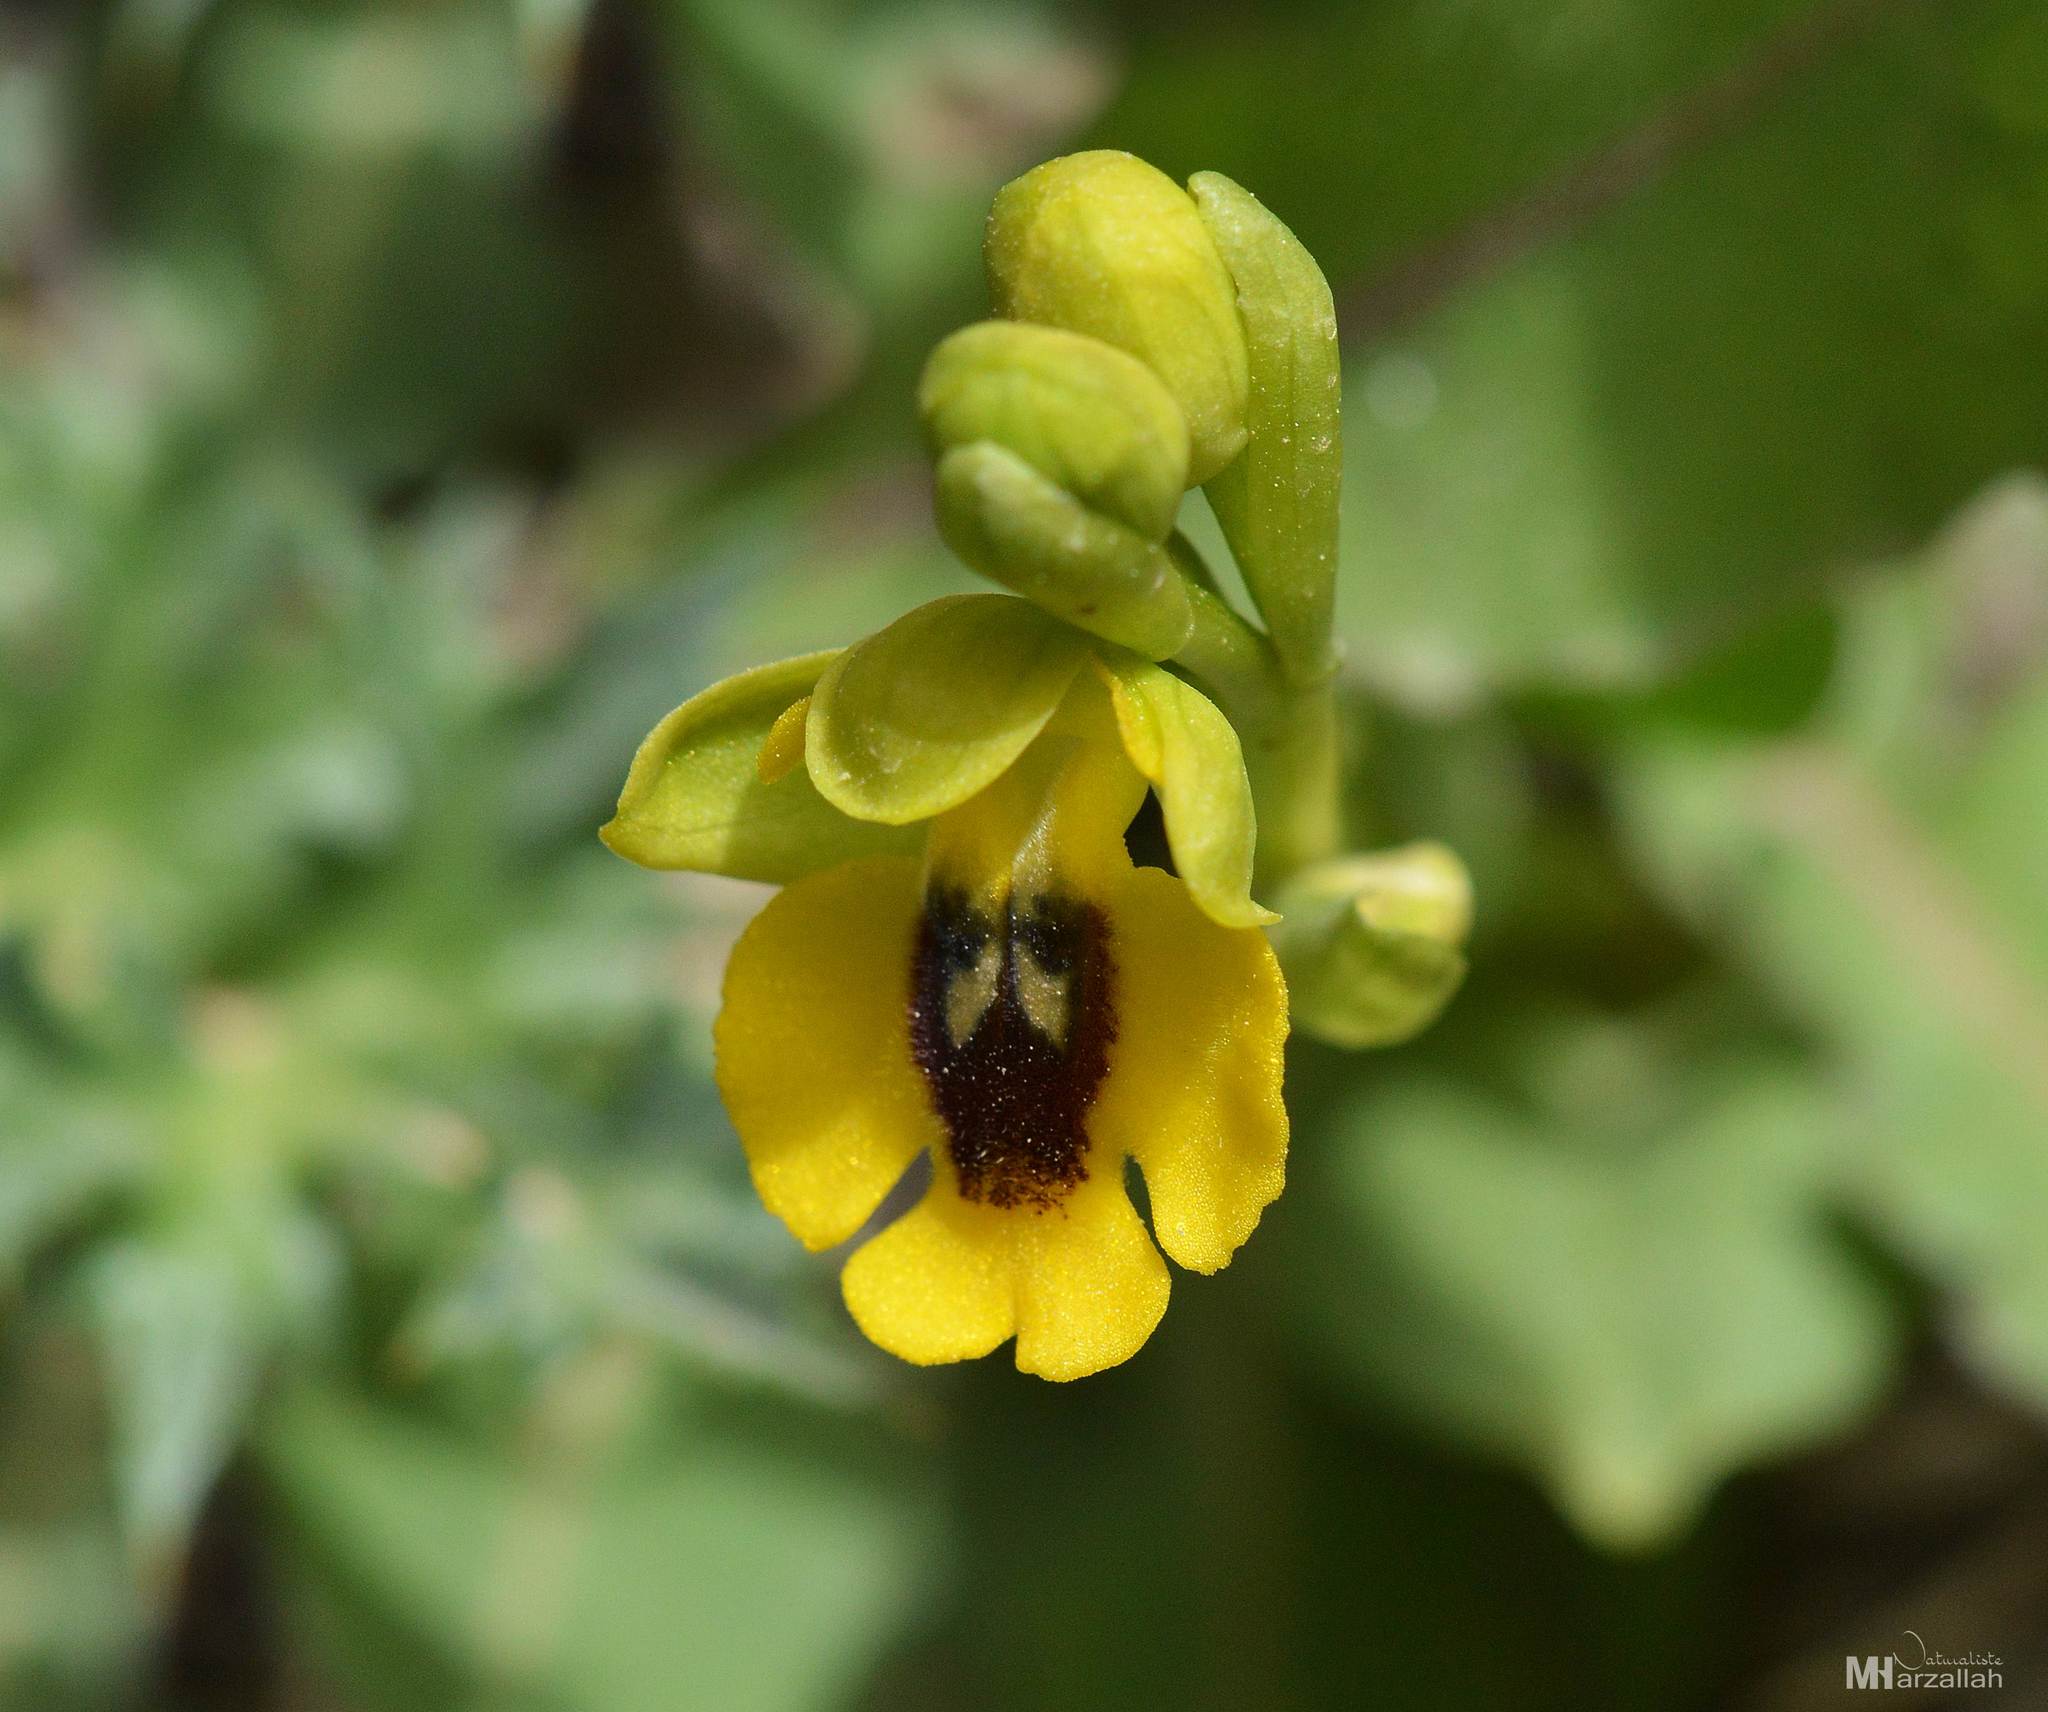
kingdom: Plantae
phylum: Tracheophyta
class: Liliopsida
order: Asparagales
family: Orchidaceae
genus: Ophrys
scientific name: Ophrys lutea
